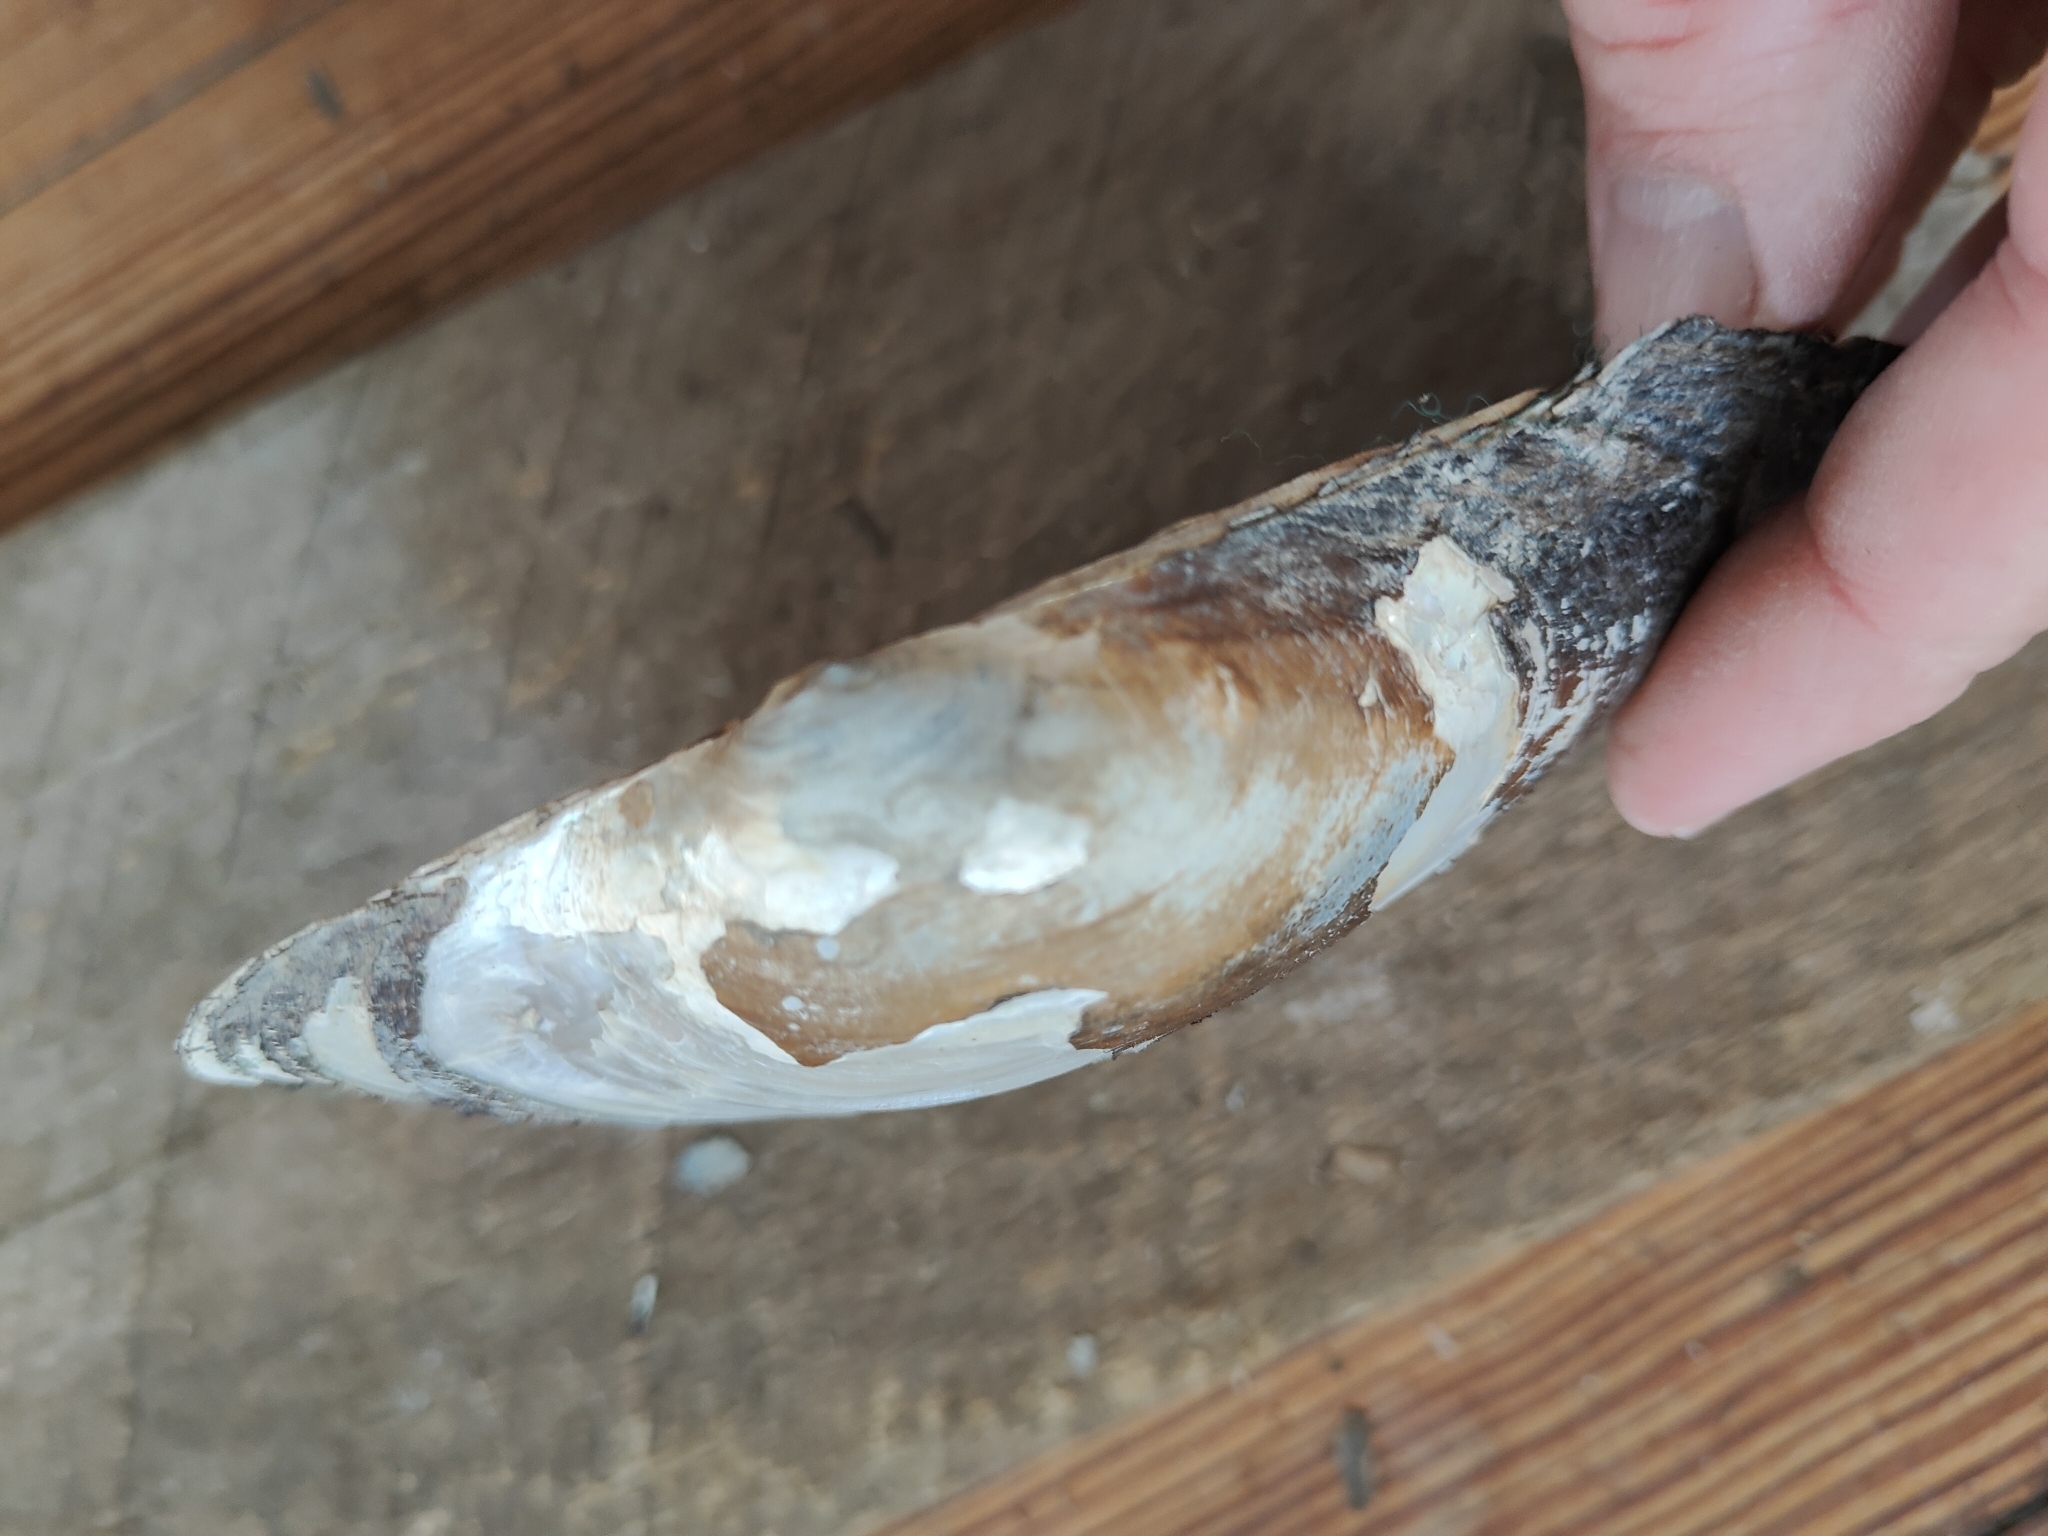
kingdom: Animalia
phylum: Mollusca
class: Bivalvia
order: Unionida
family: Unionidae
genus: Pyganodon
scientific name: Pyganodon grandis
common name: Giant floater
